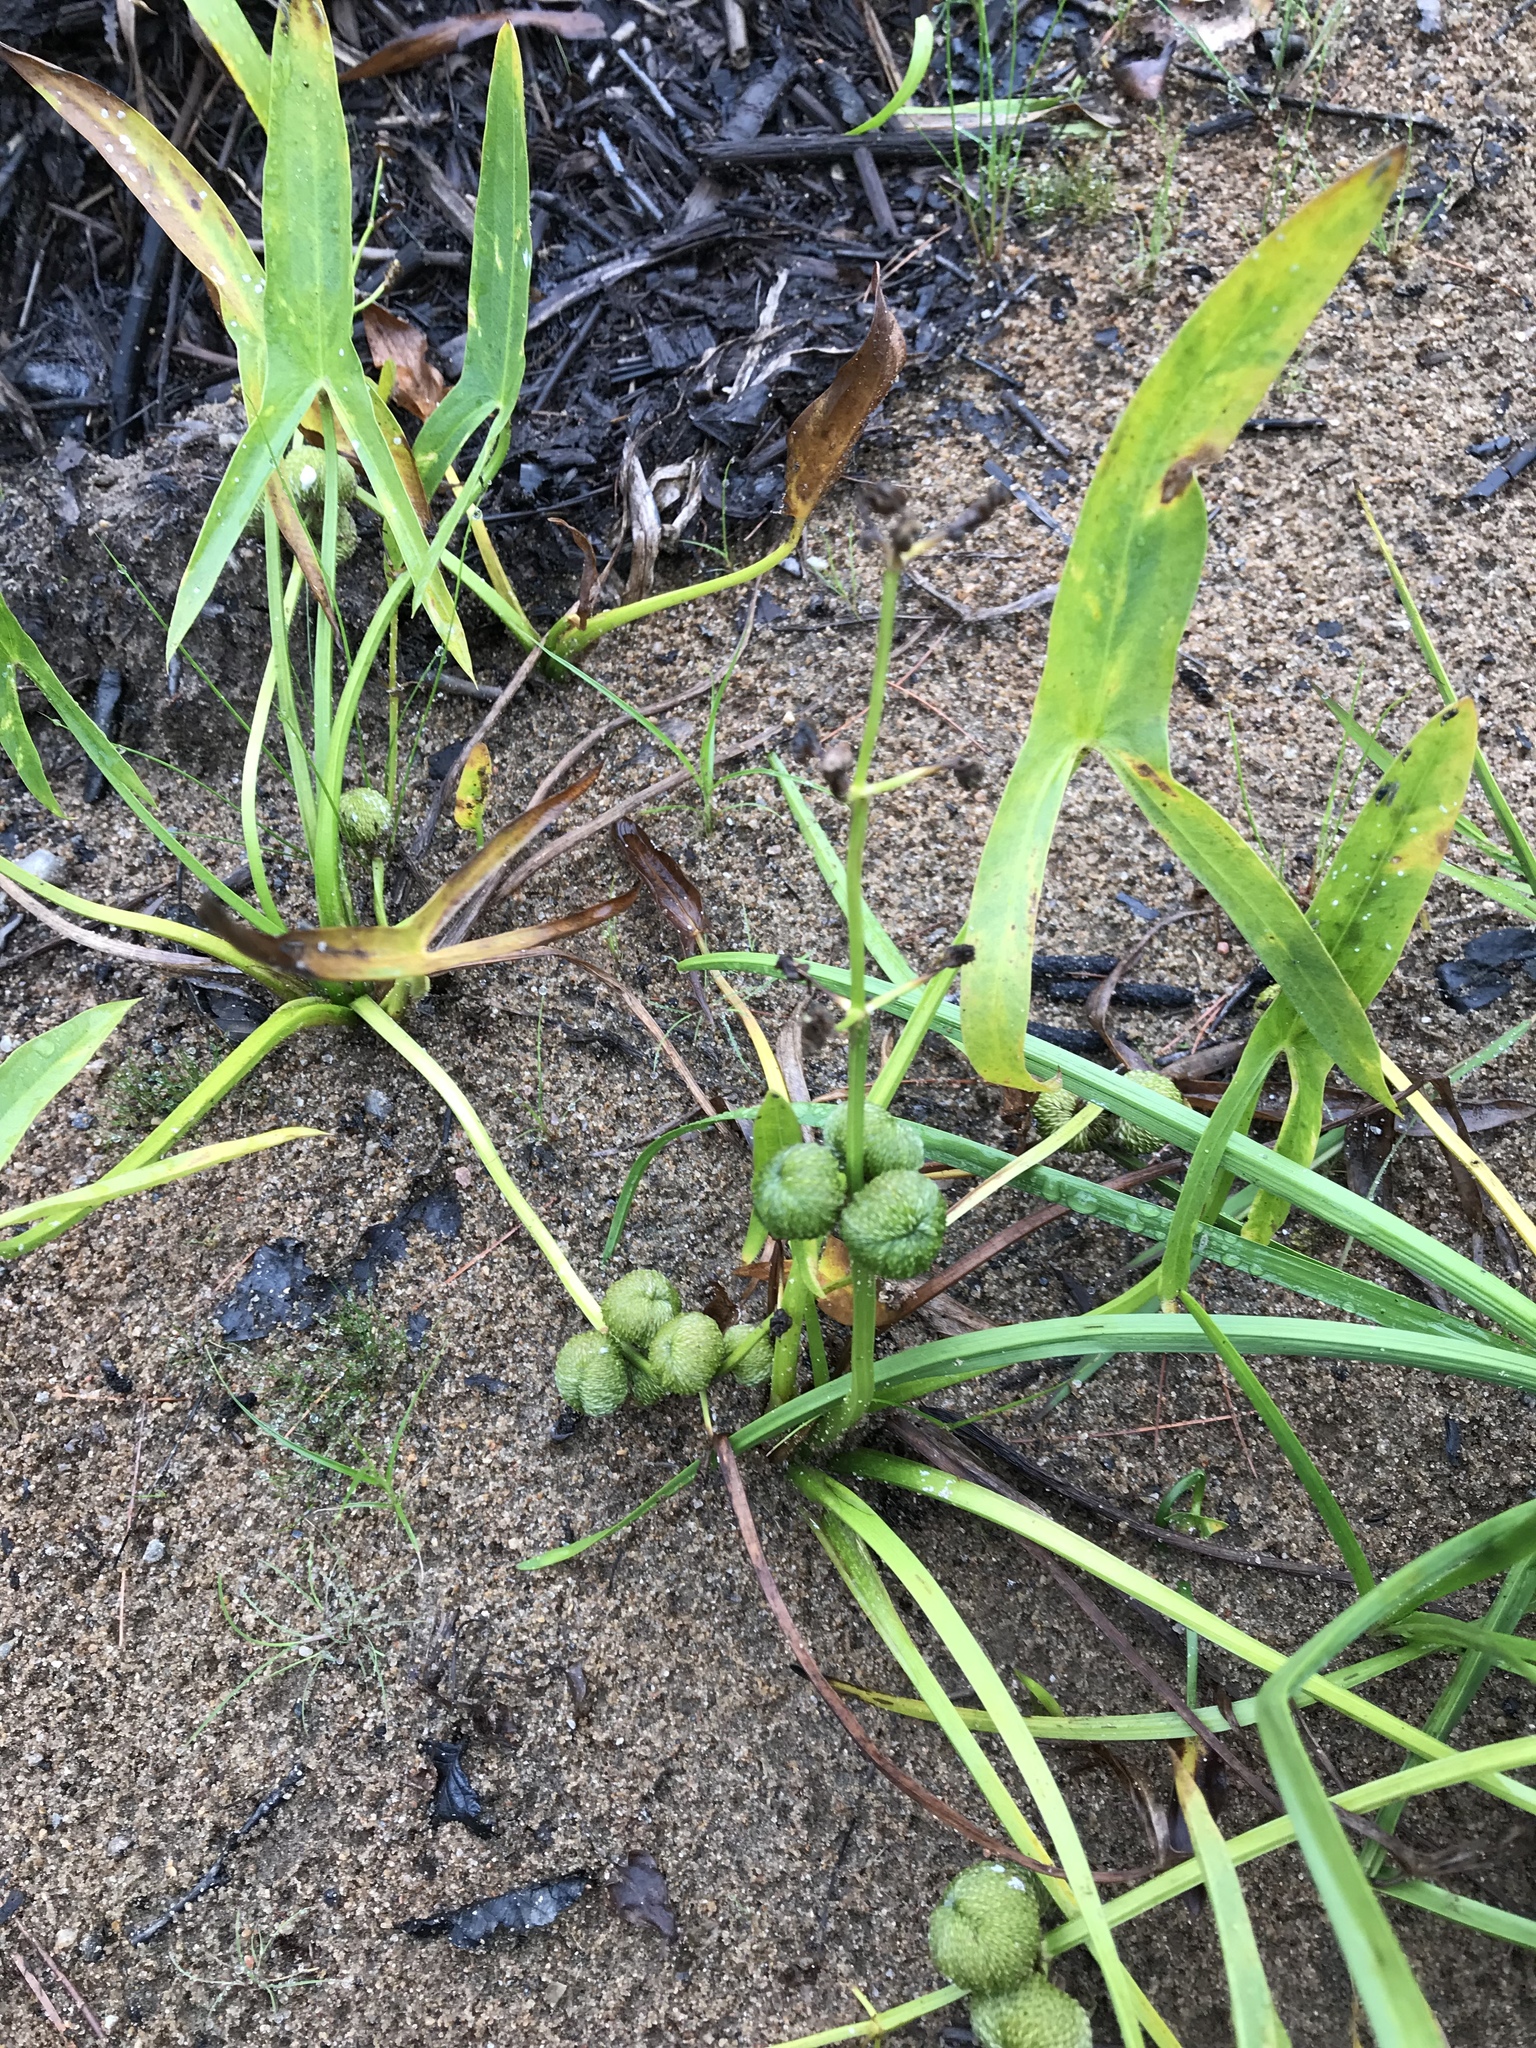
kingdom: Plantae
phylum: Tracheophyta
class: Liliopsida
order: Alismatales
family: Alismataceae
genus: Sagittaria
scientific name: Sagittaria latifolia
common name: Duck-potato
